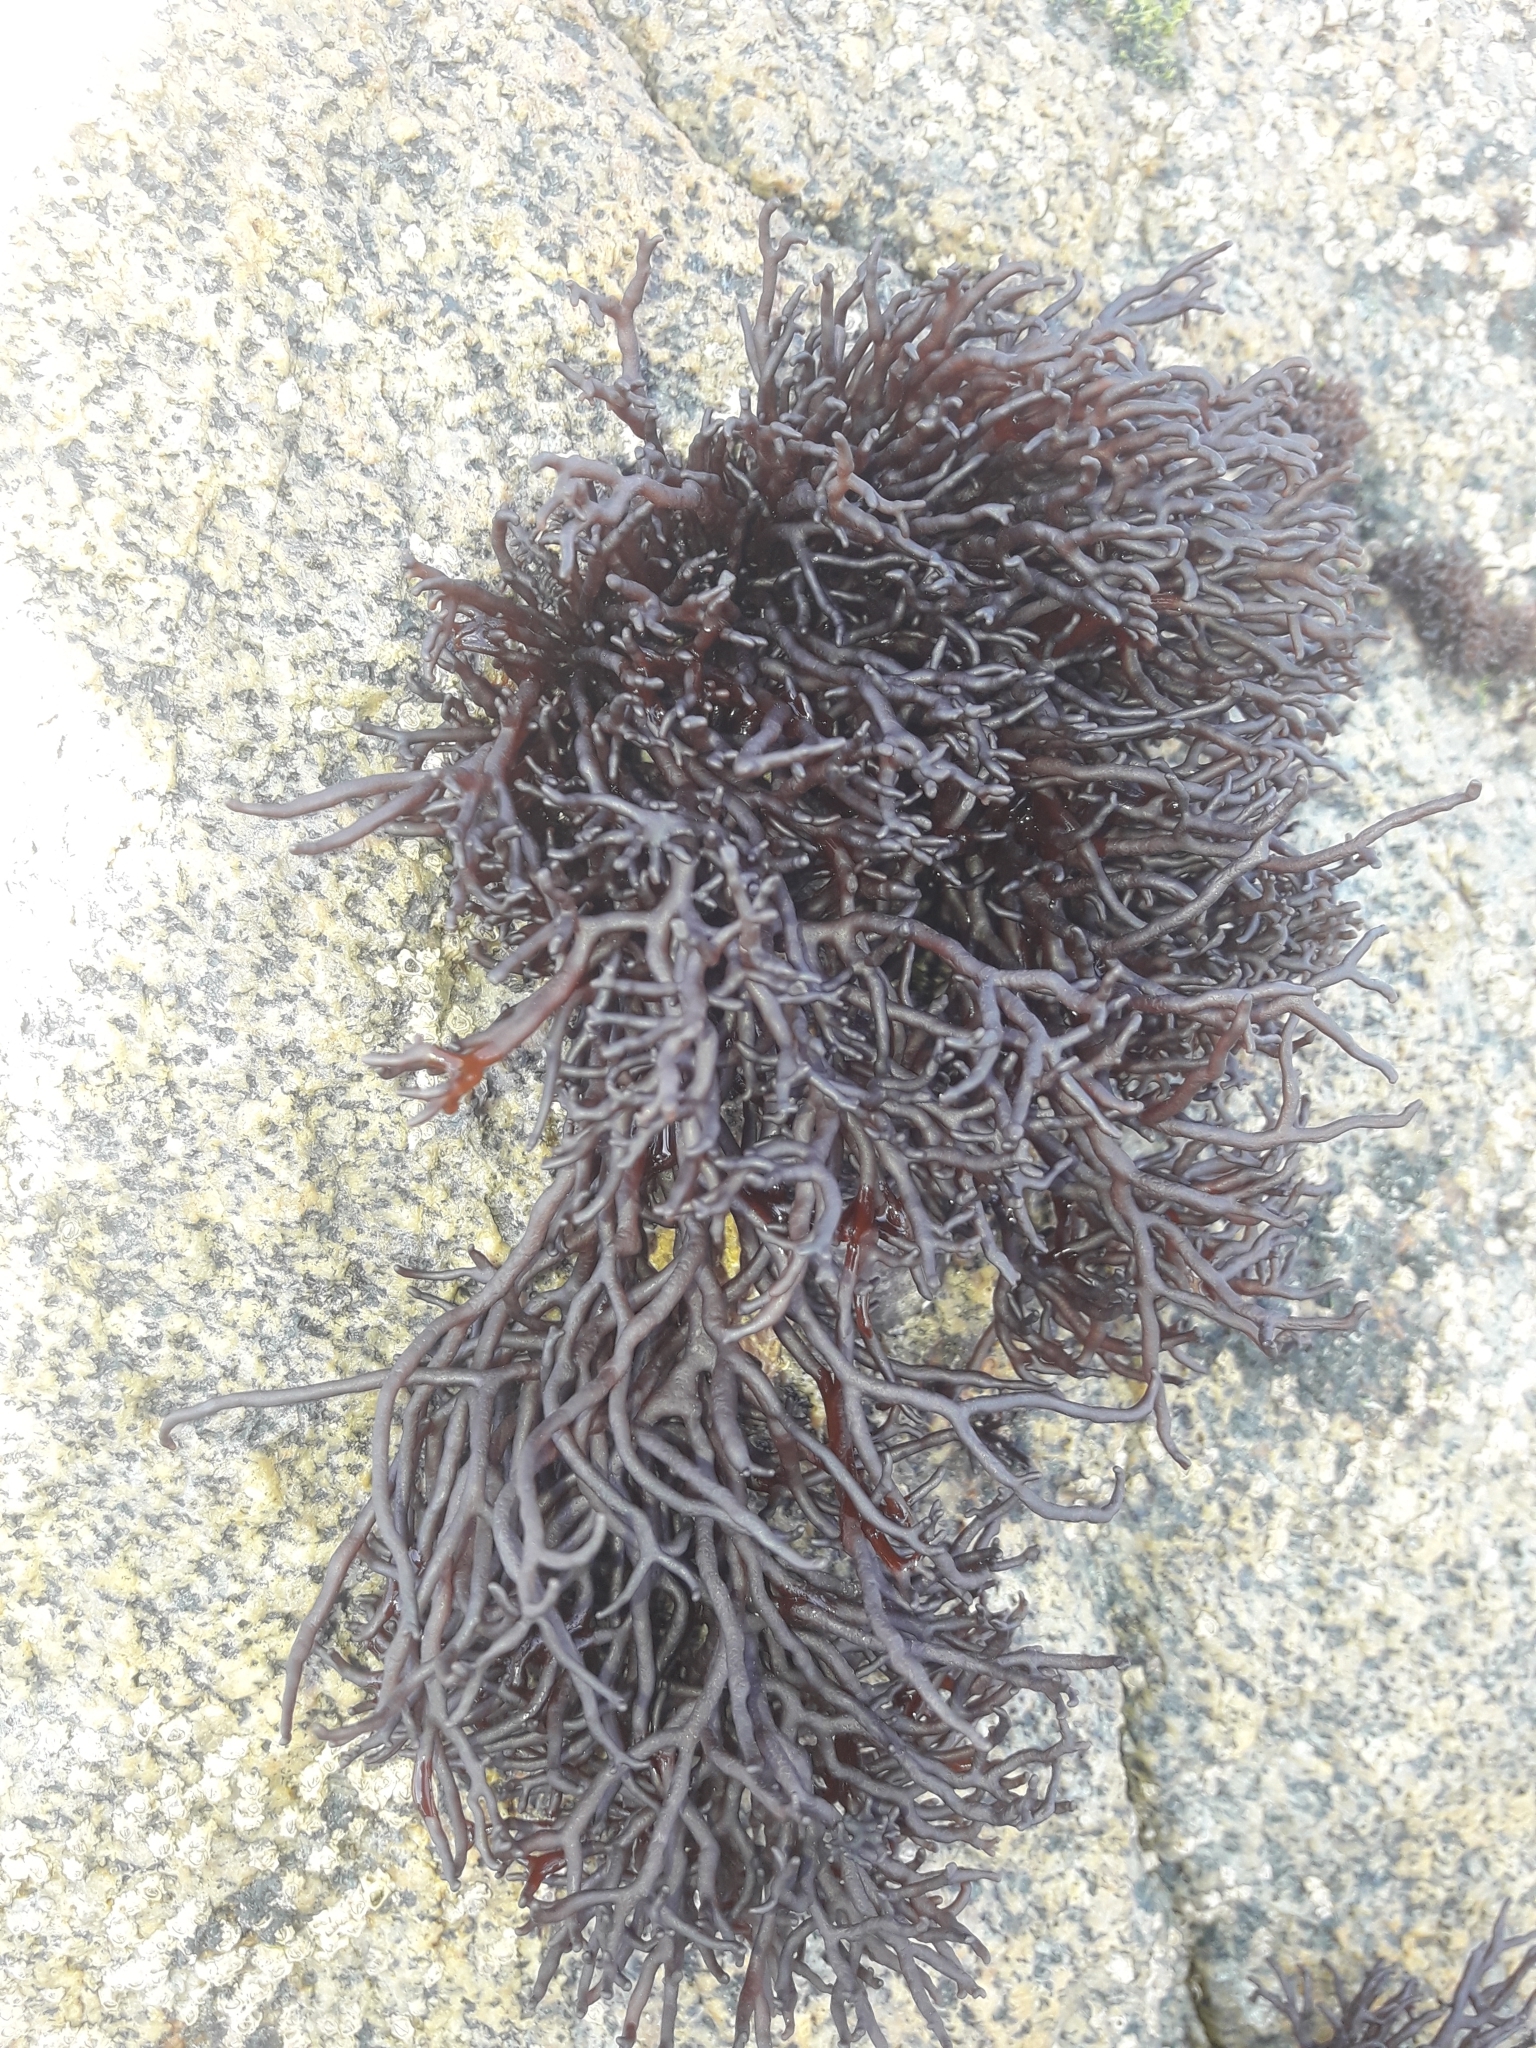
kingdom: Plantae
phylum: Rhodophyta
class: Florideophyceae
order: Hildenbrandiales
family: Hildenbrandiaceae
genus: Apophlaea
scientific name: Apophlaea lyallii
